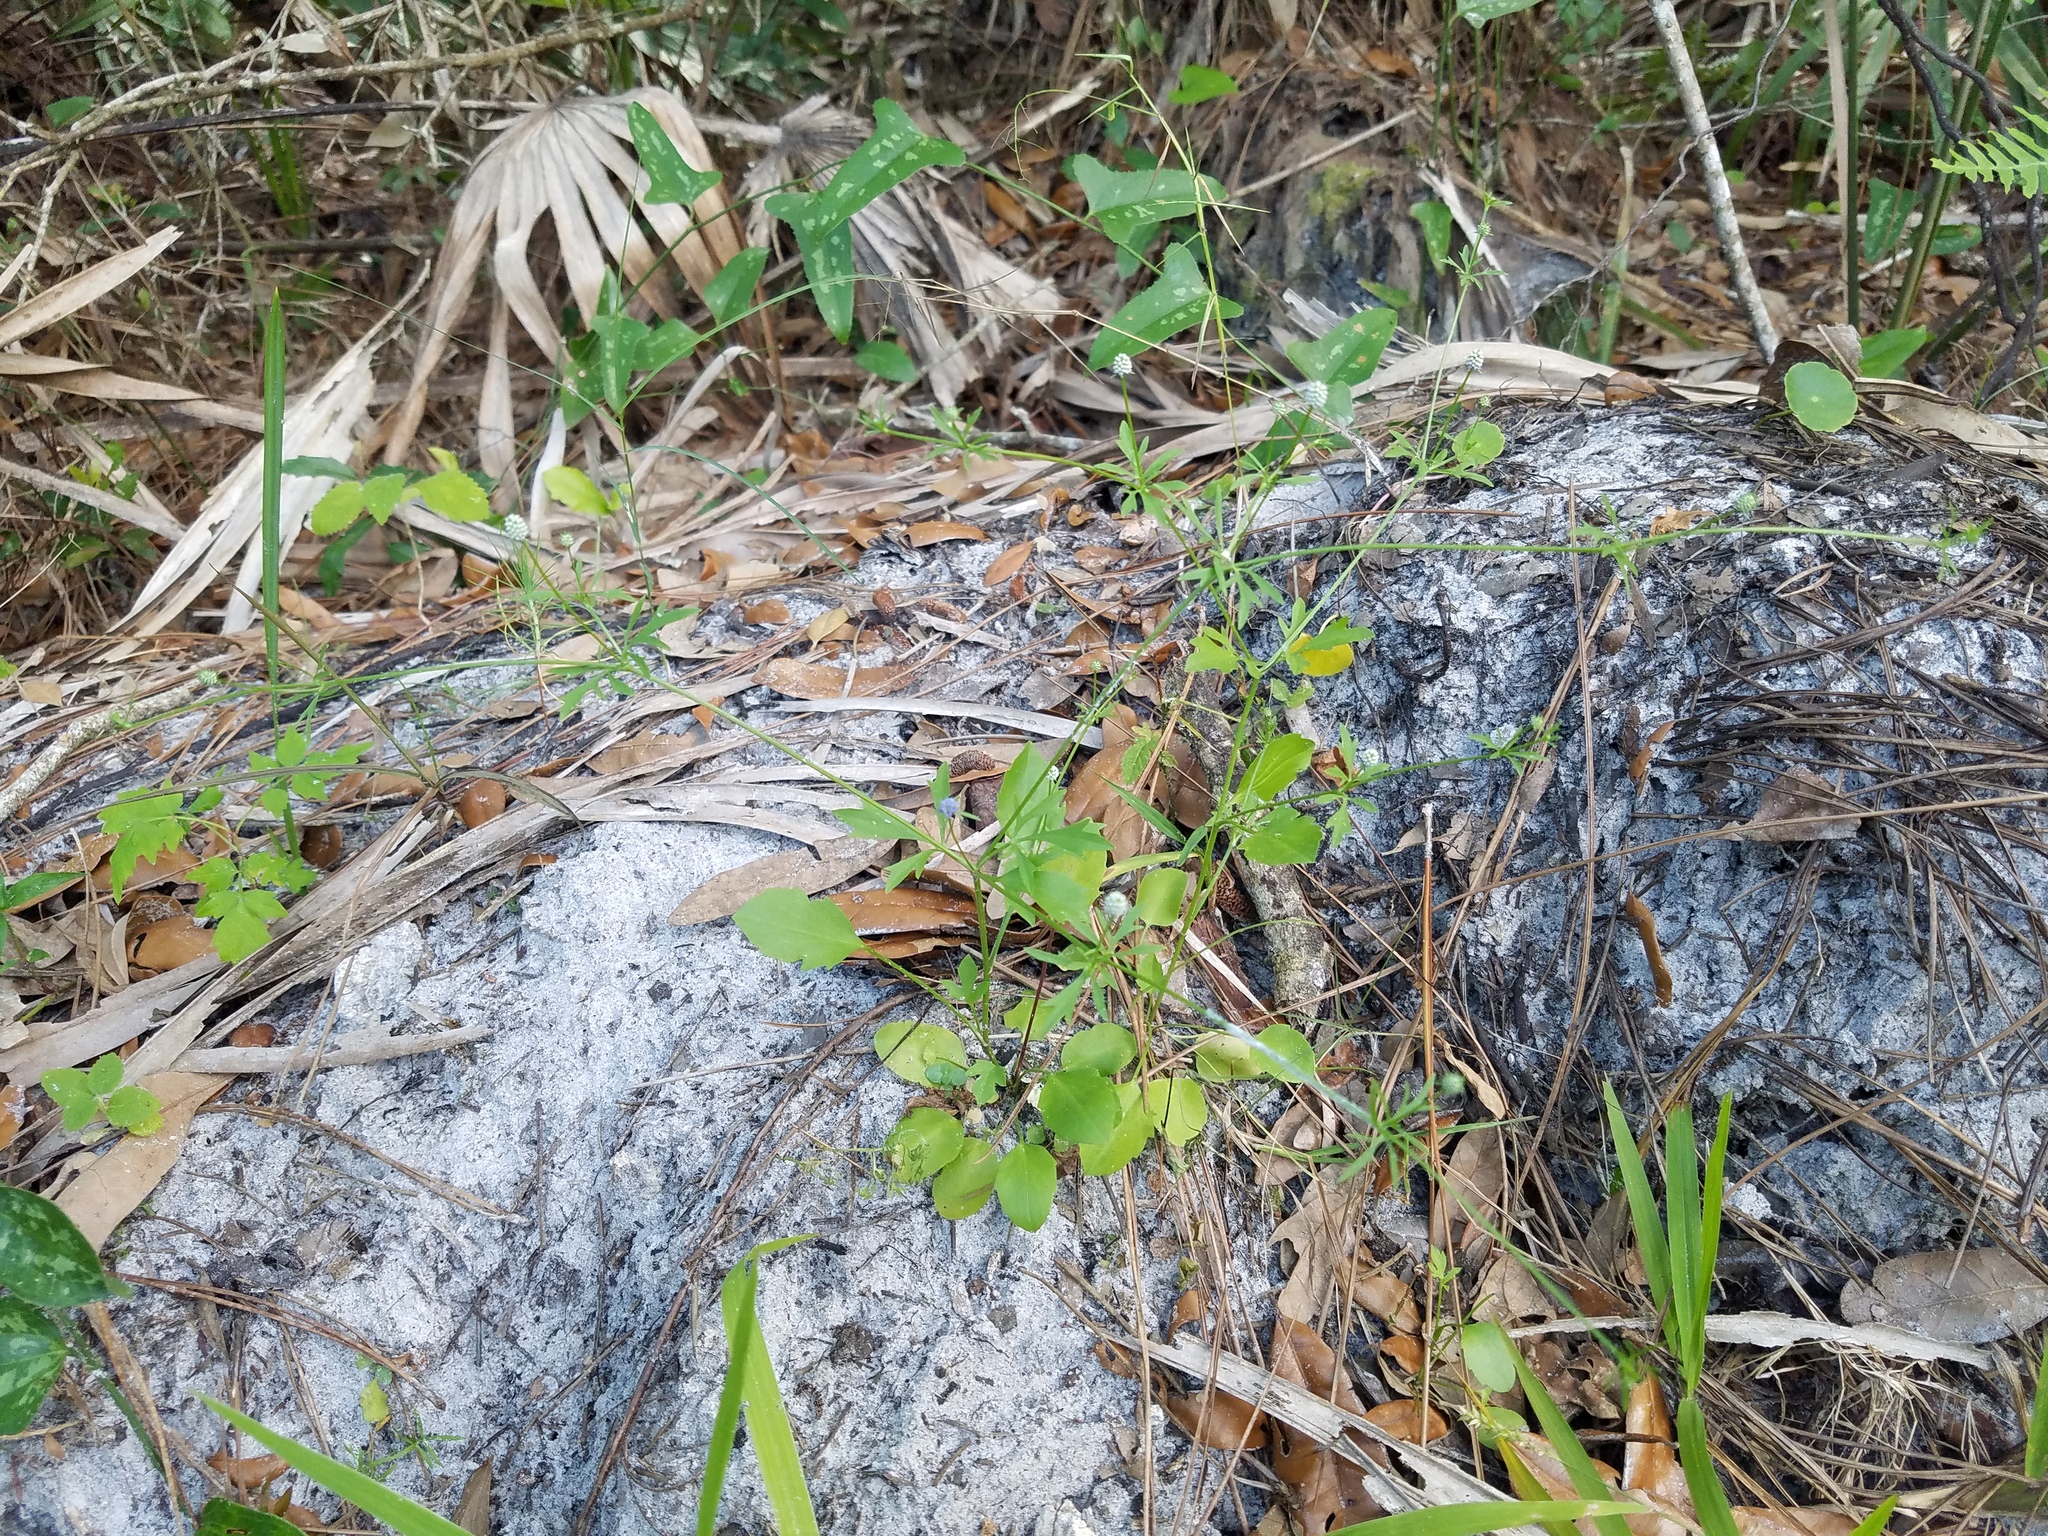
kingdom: Plantae
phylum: Tracheophyta
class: Magnoliopsida
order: Apiales
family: Apiaceae
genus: Eryngium
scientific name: Eryngium baldwinii
